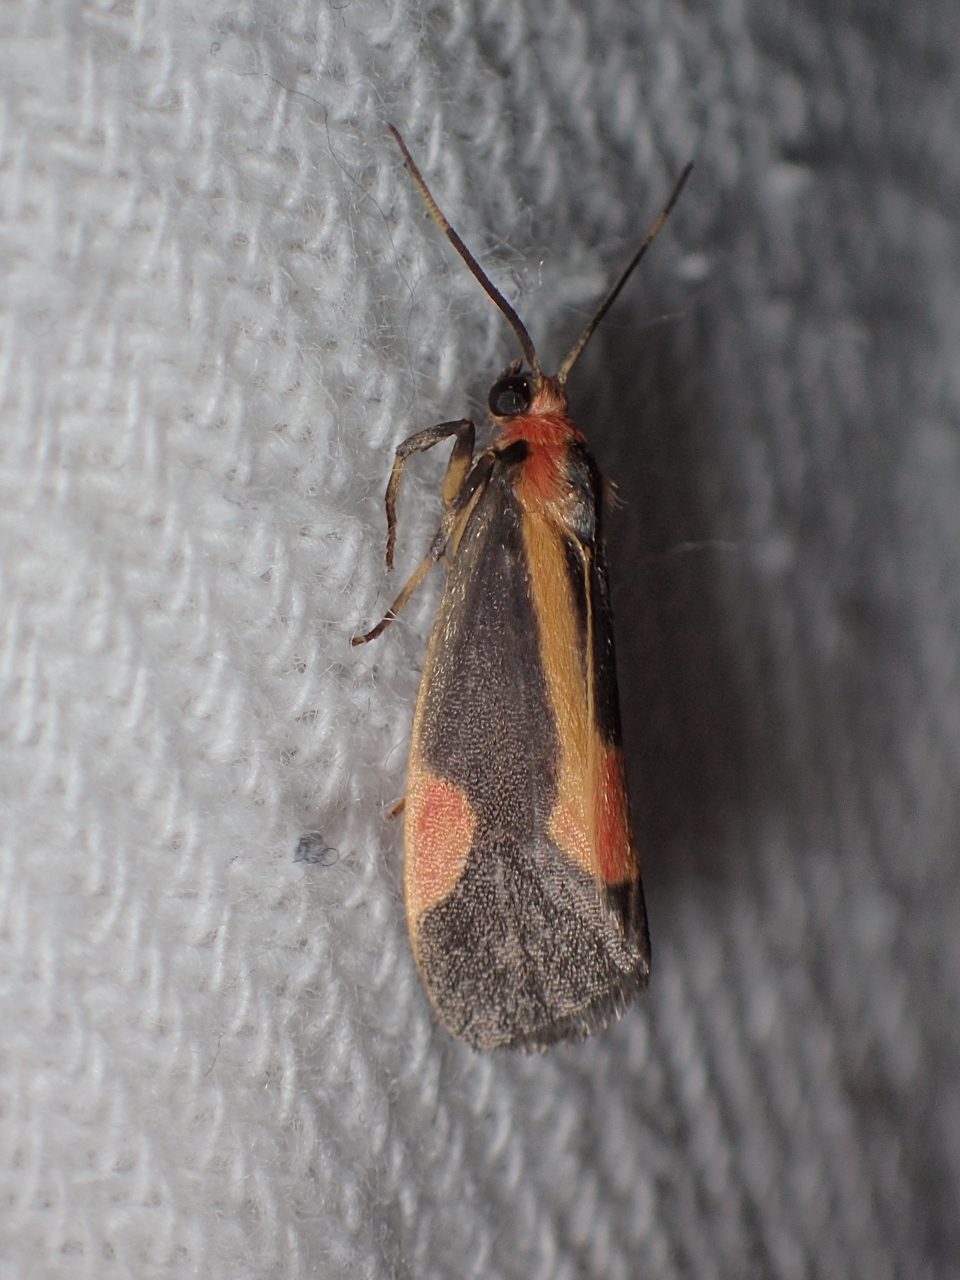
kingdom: Animalia
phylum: Arthropoda
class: Insecta
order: Lepidoptera
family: Erebidae
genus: Cisthene
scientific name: Cisthene packardii
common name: Packard's lichen moth
